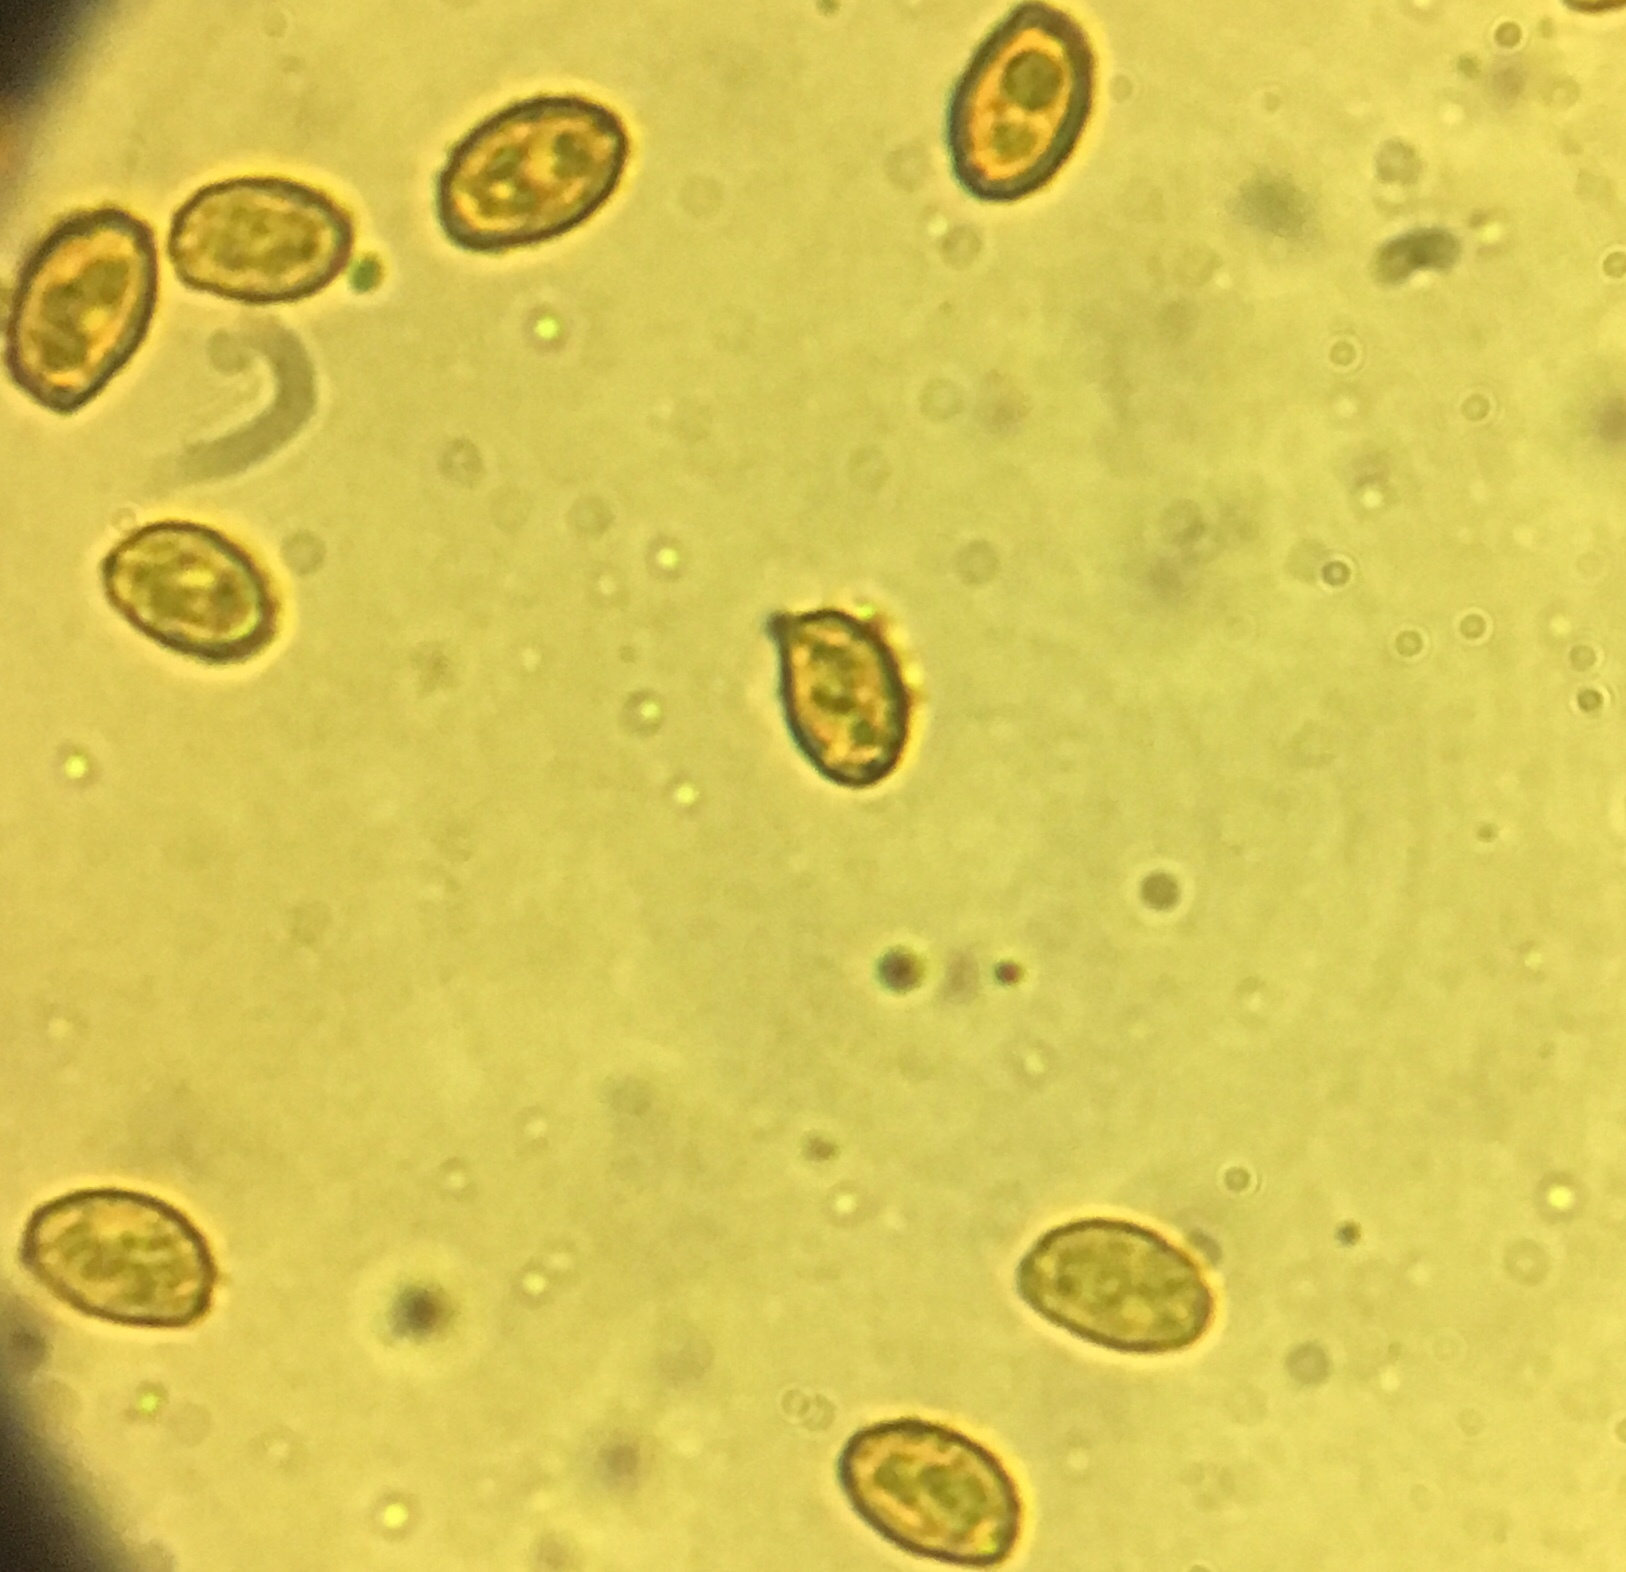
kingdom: Fungi
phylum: Basidiomycota
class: Agaricomycetes
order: Agaricales
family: Hymenogastraceae
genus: Gymnopilus
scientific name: Gymnopilus luteofolius
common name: Yellow-gilled gymnopilus
